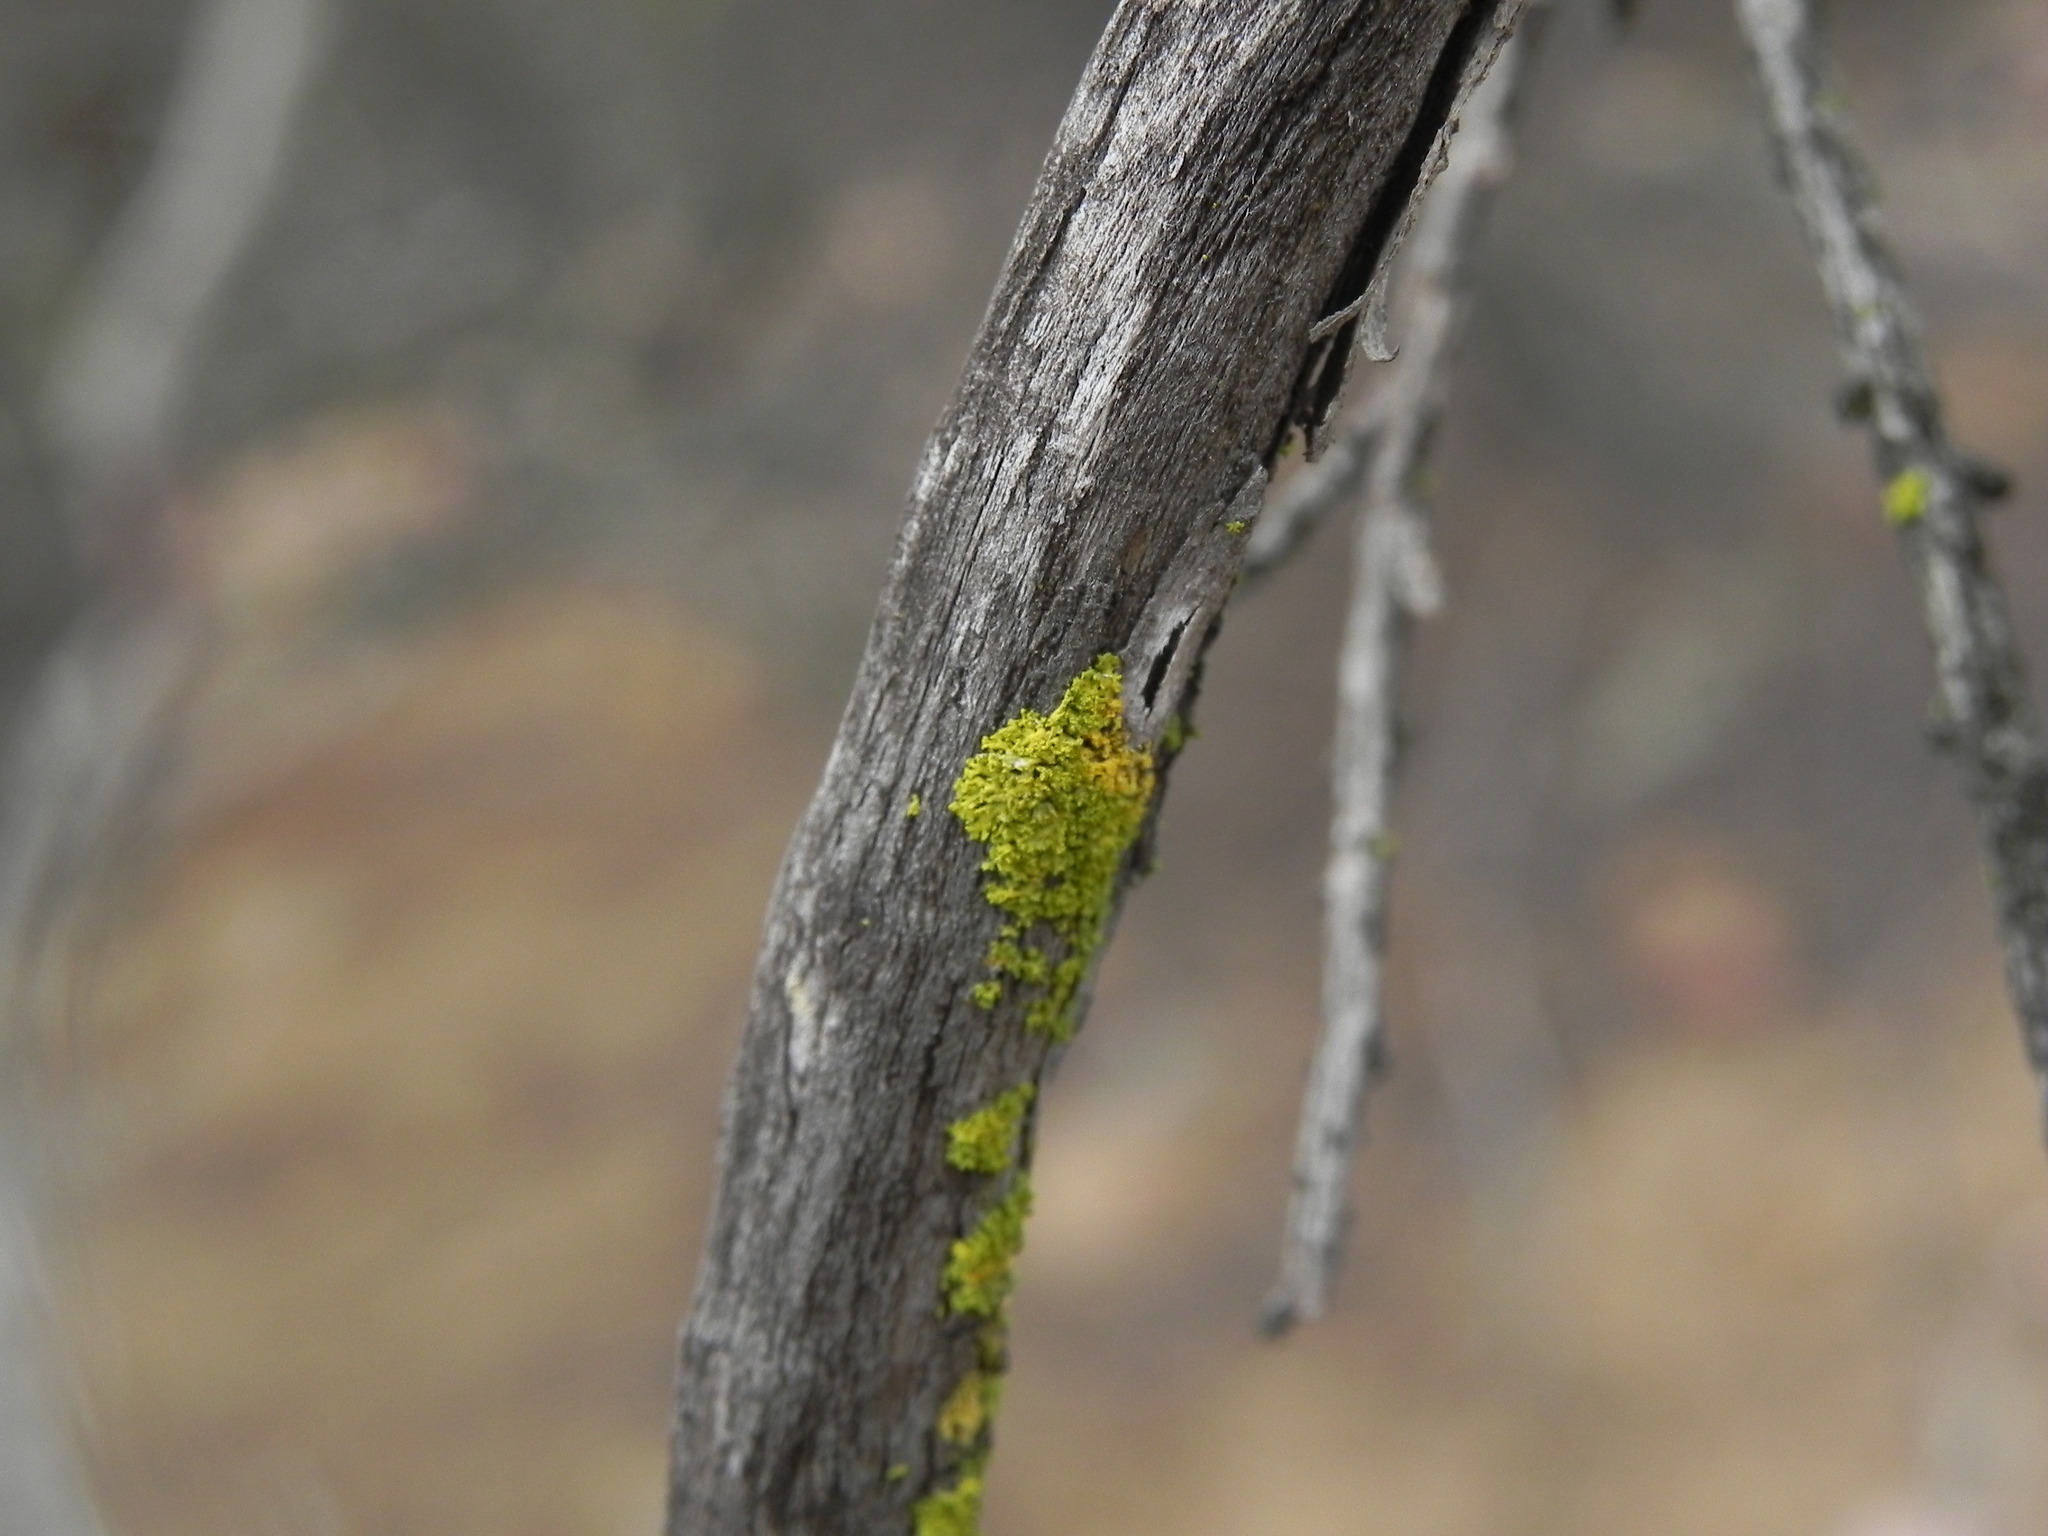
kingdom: Fungi
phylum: Ascomycota
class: Candelariomycetes
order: Candelariales
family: Candelariaceae
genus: Candelaria
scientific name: Candelaria pacifica
